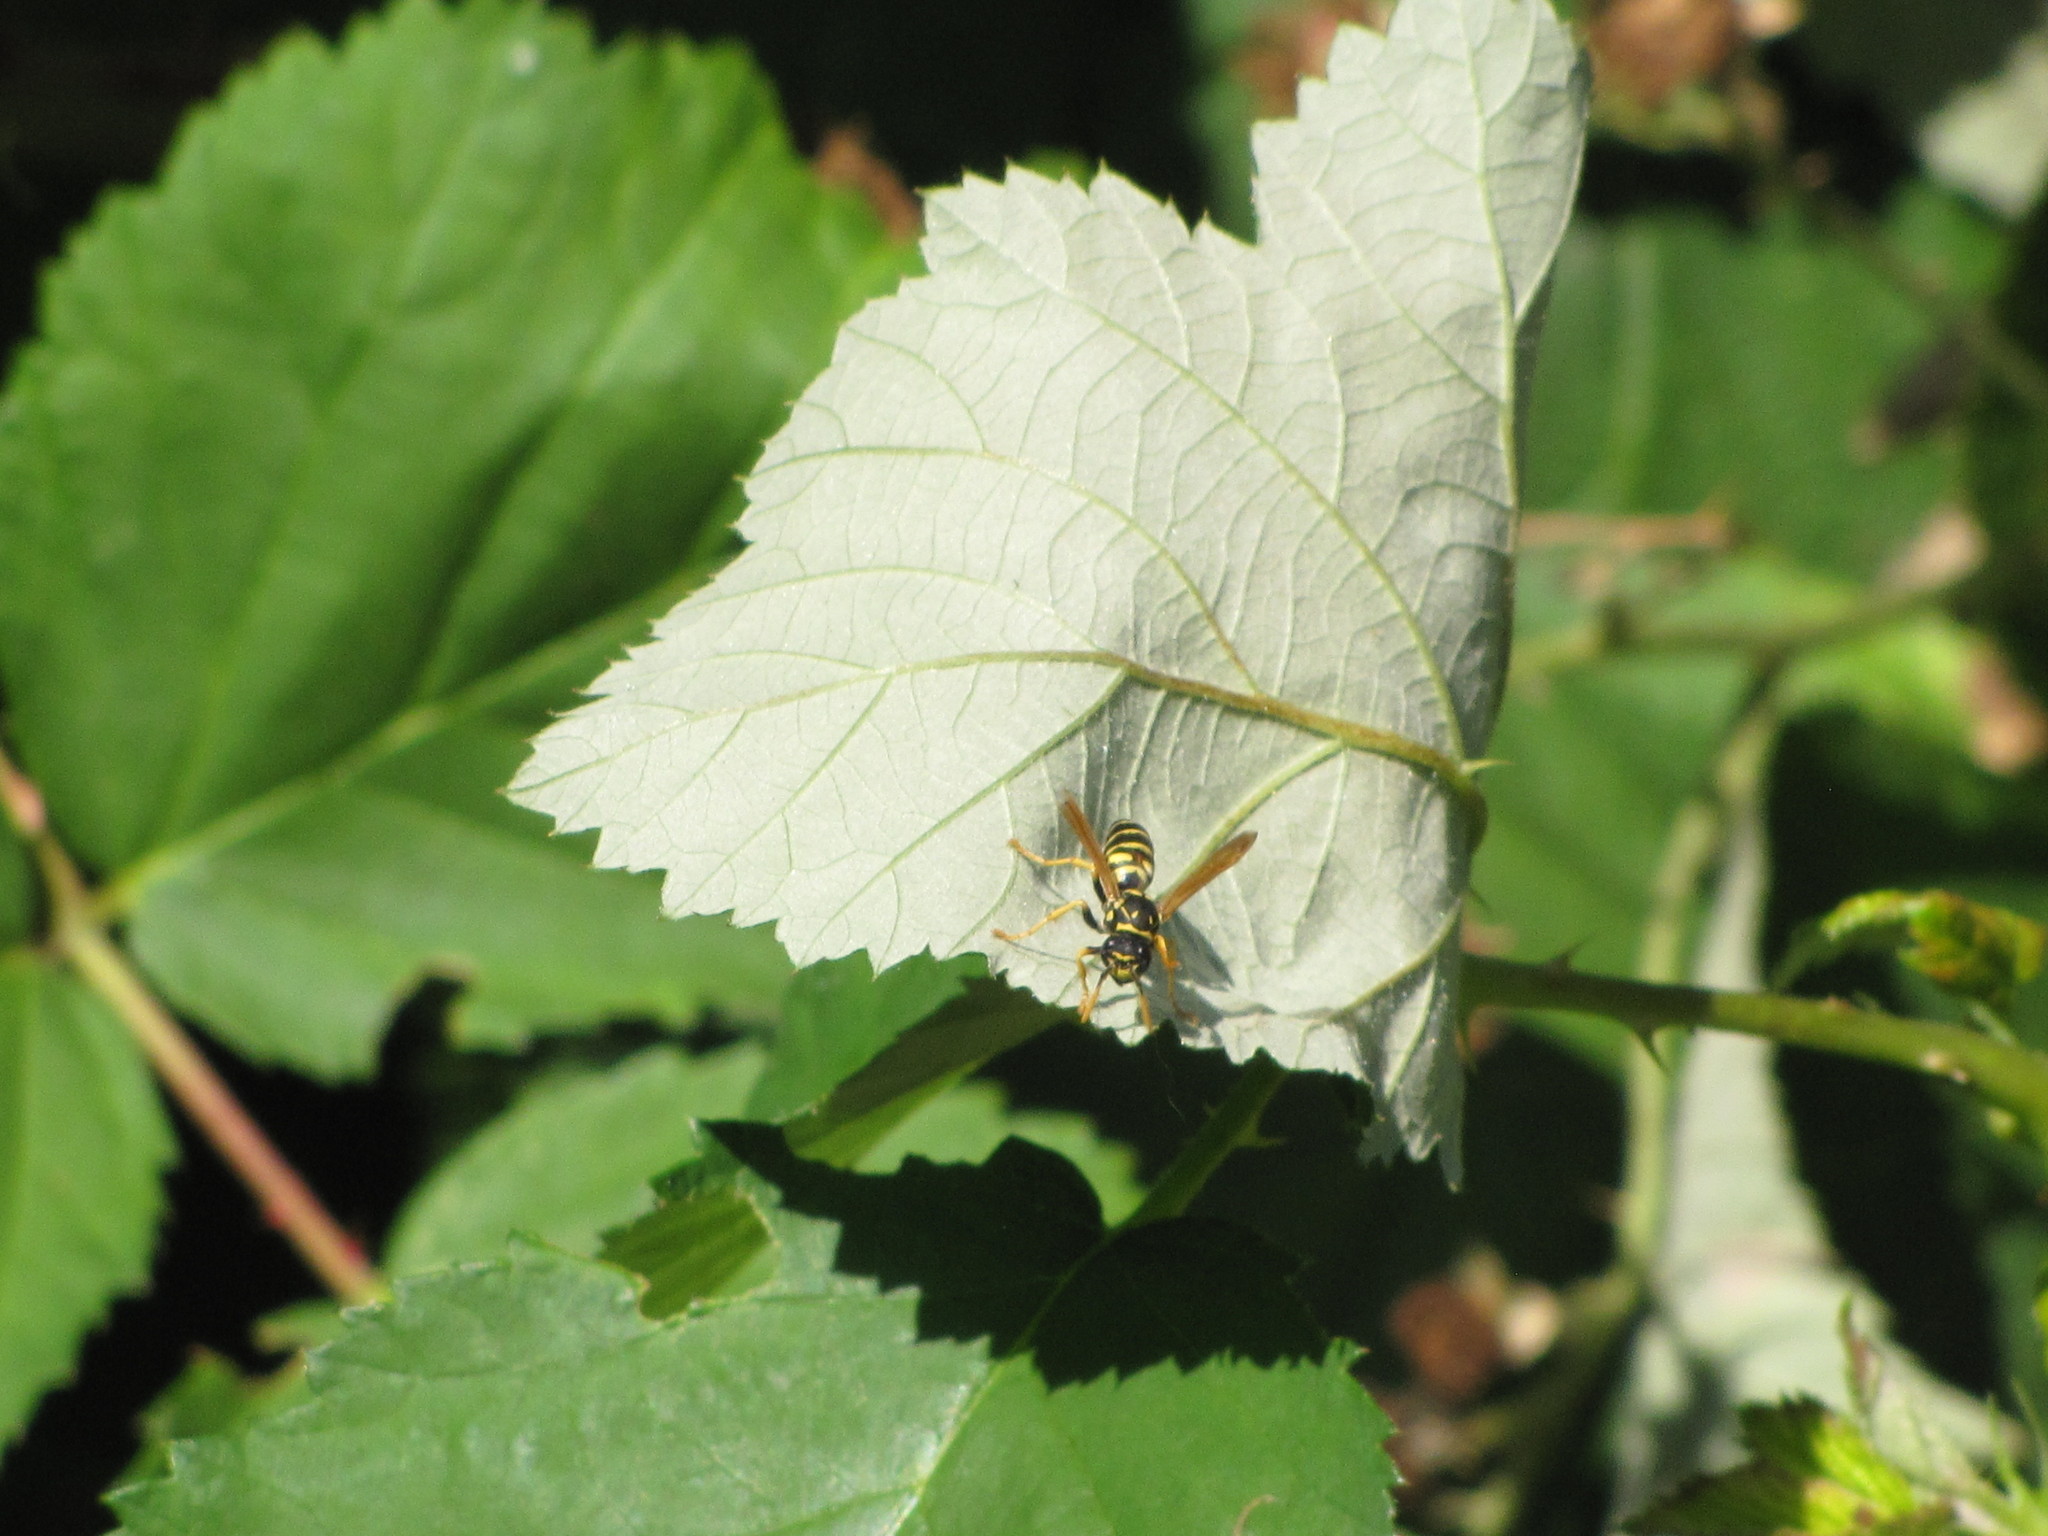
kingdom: Animalia
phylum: Arthropoda
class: Insecta
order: Hymenoptera
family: Eumenidae
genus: Polistes
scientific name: Polistes dominula
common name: Paper wasp
